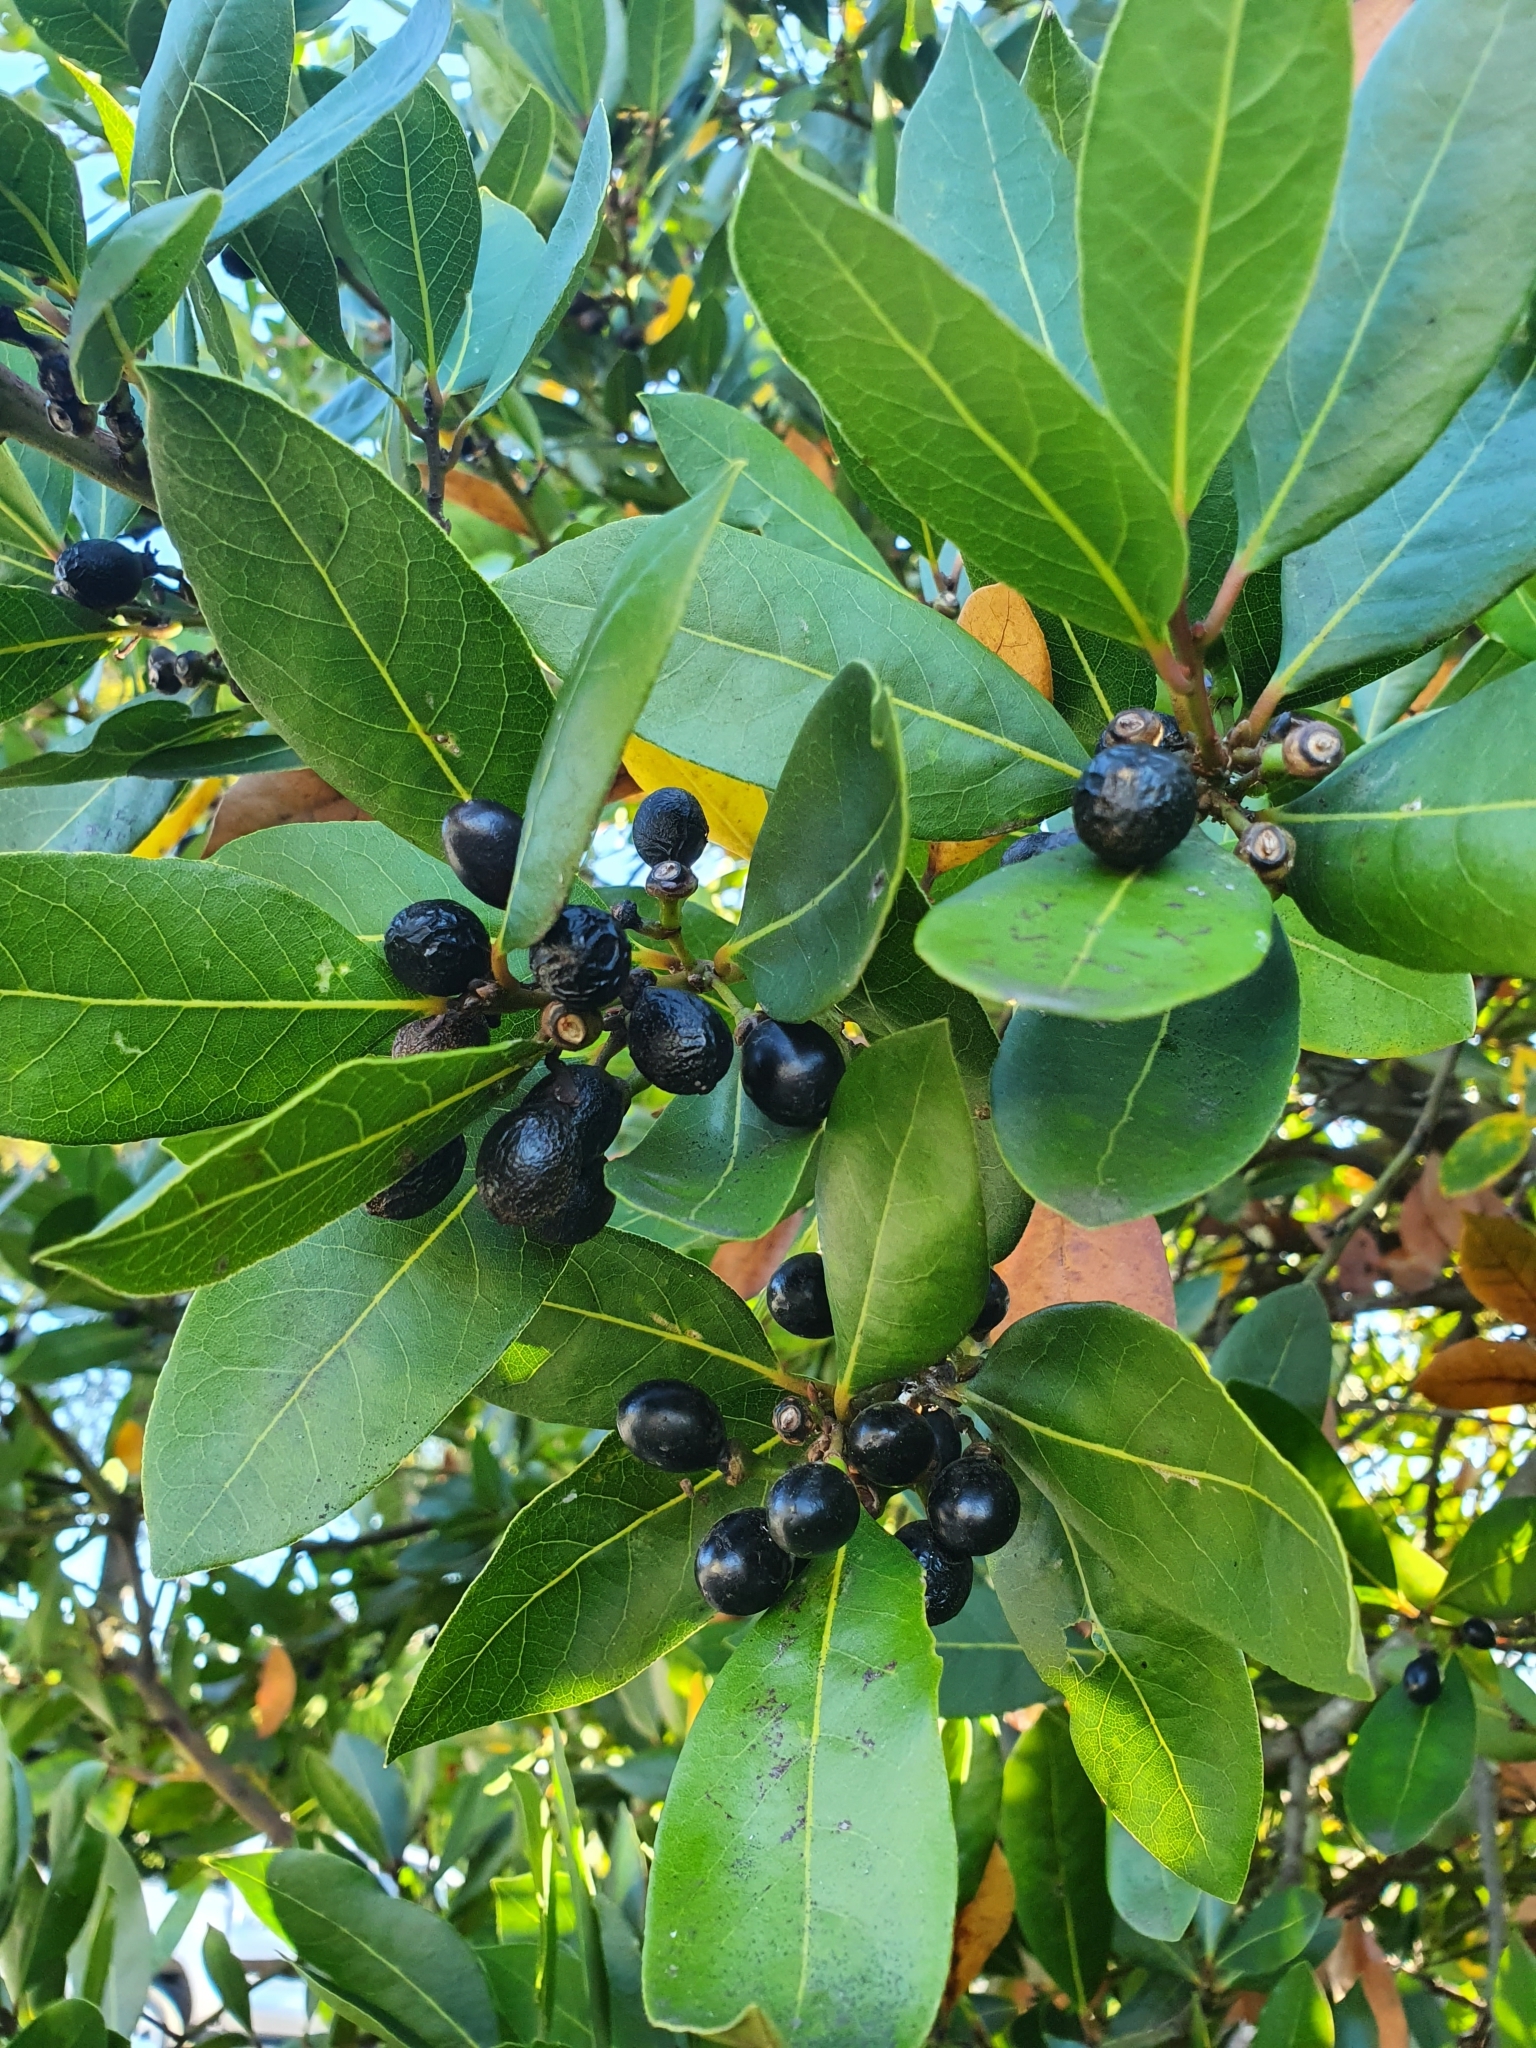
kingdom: Plantae
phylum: Tracheophyta
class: Magnoliopsida
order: Laurales
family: Lauraceae
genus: Laurus
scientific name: Laurus nobilis
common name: Bay
